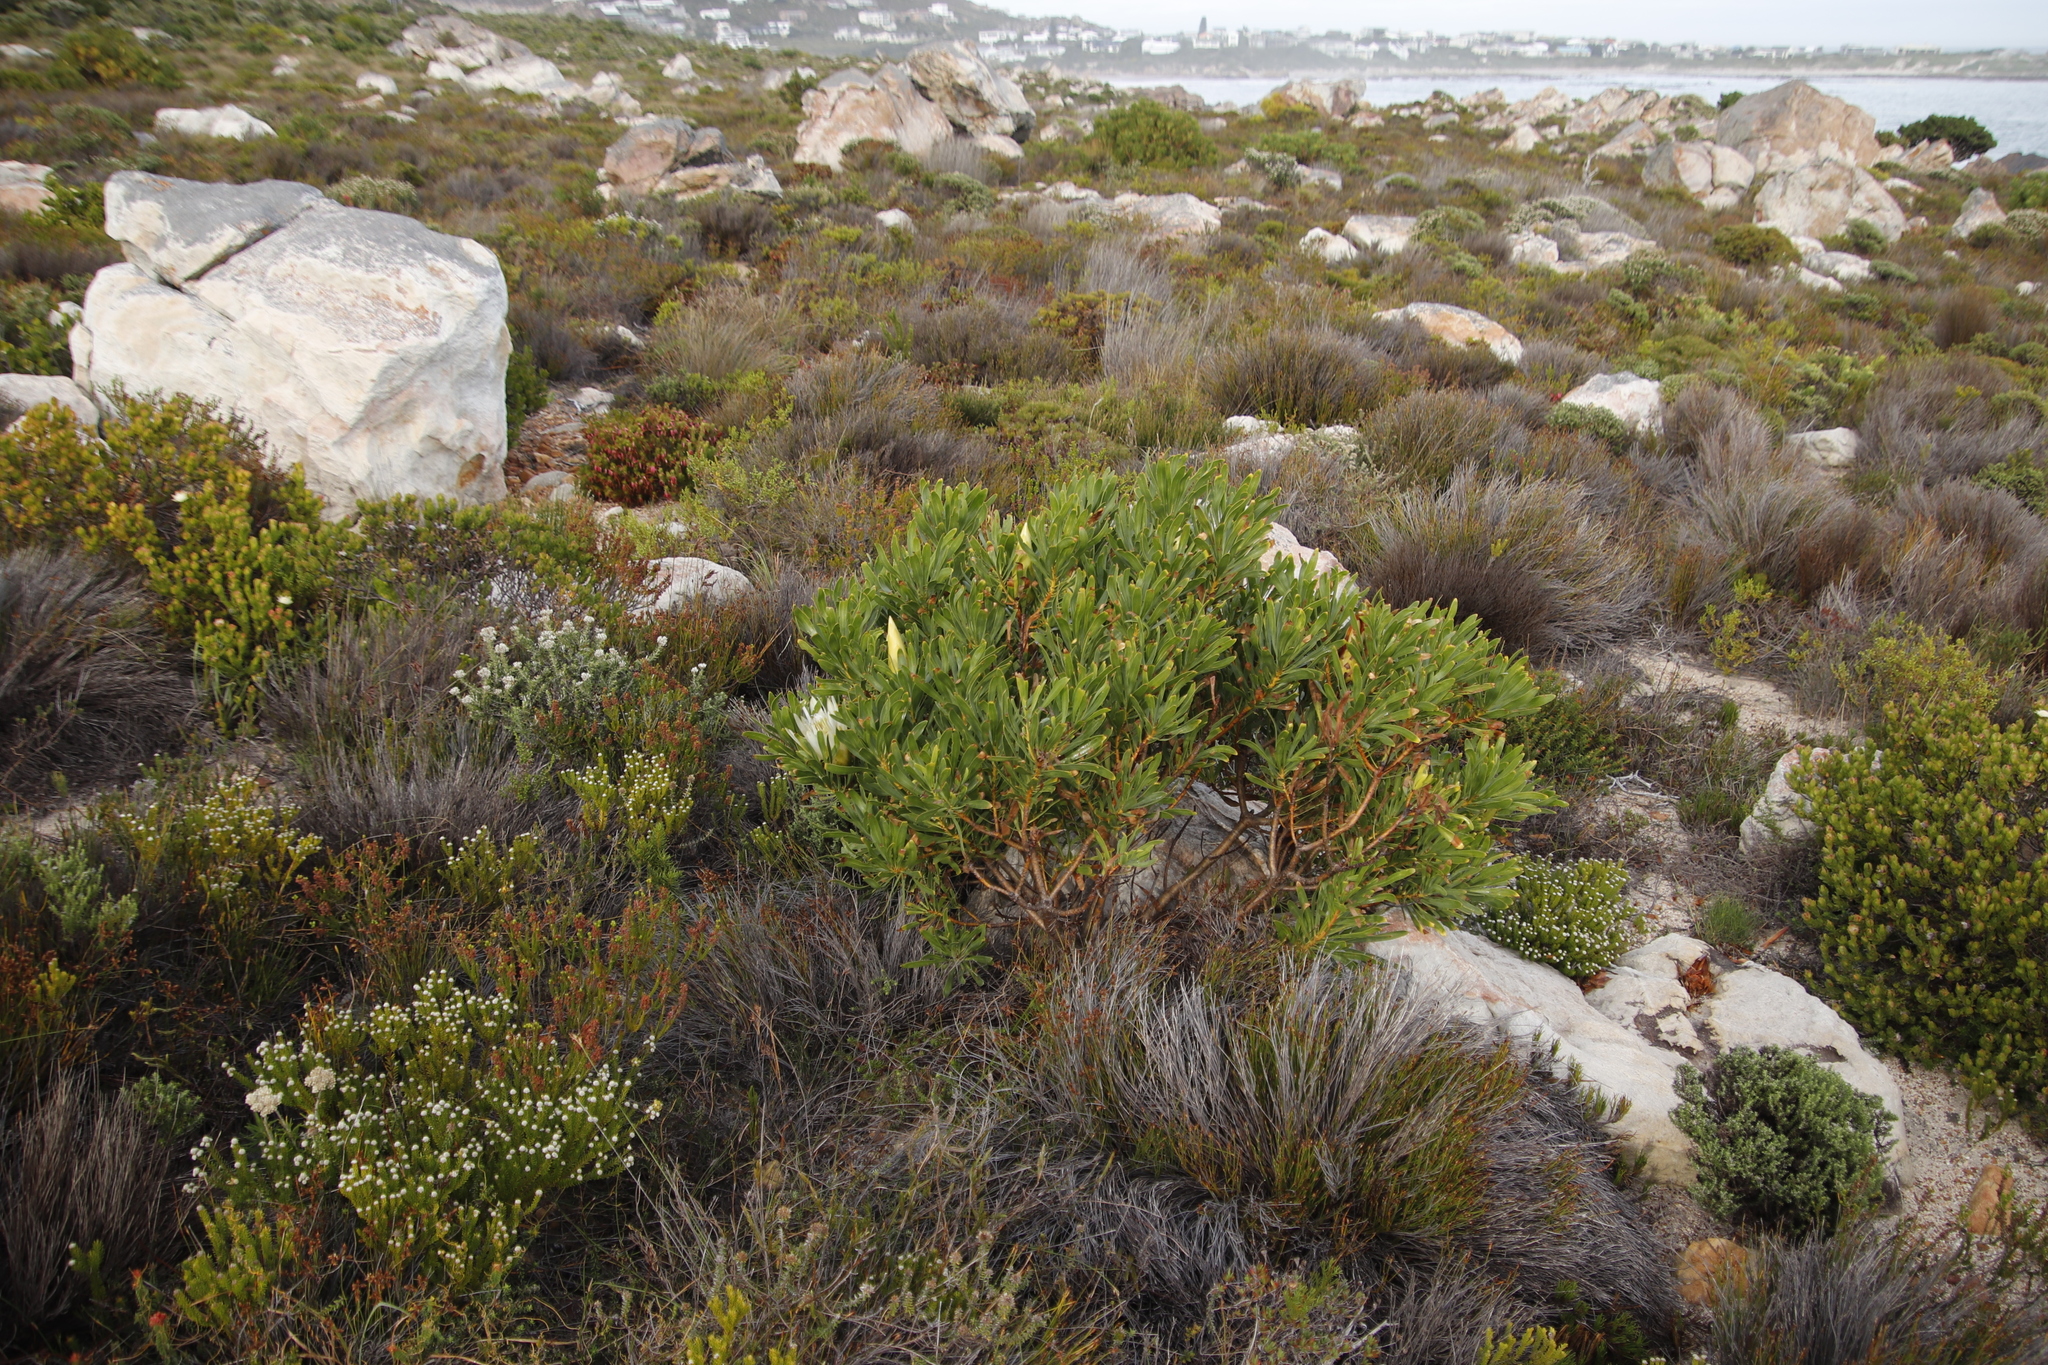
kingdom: Plantae
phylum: Tracheophyta
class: Magnoliopsida
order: Proteales
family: Proteaceae
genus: Protea
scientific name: Protea repens
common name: Sugarbush
